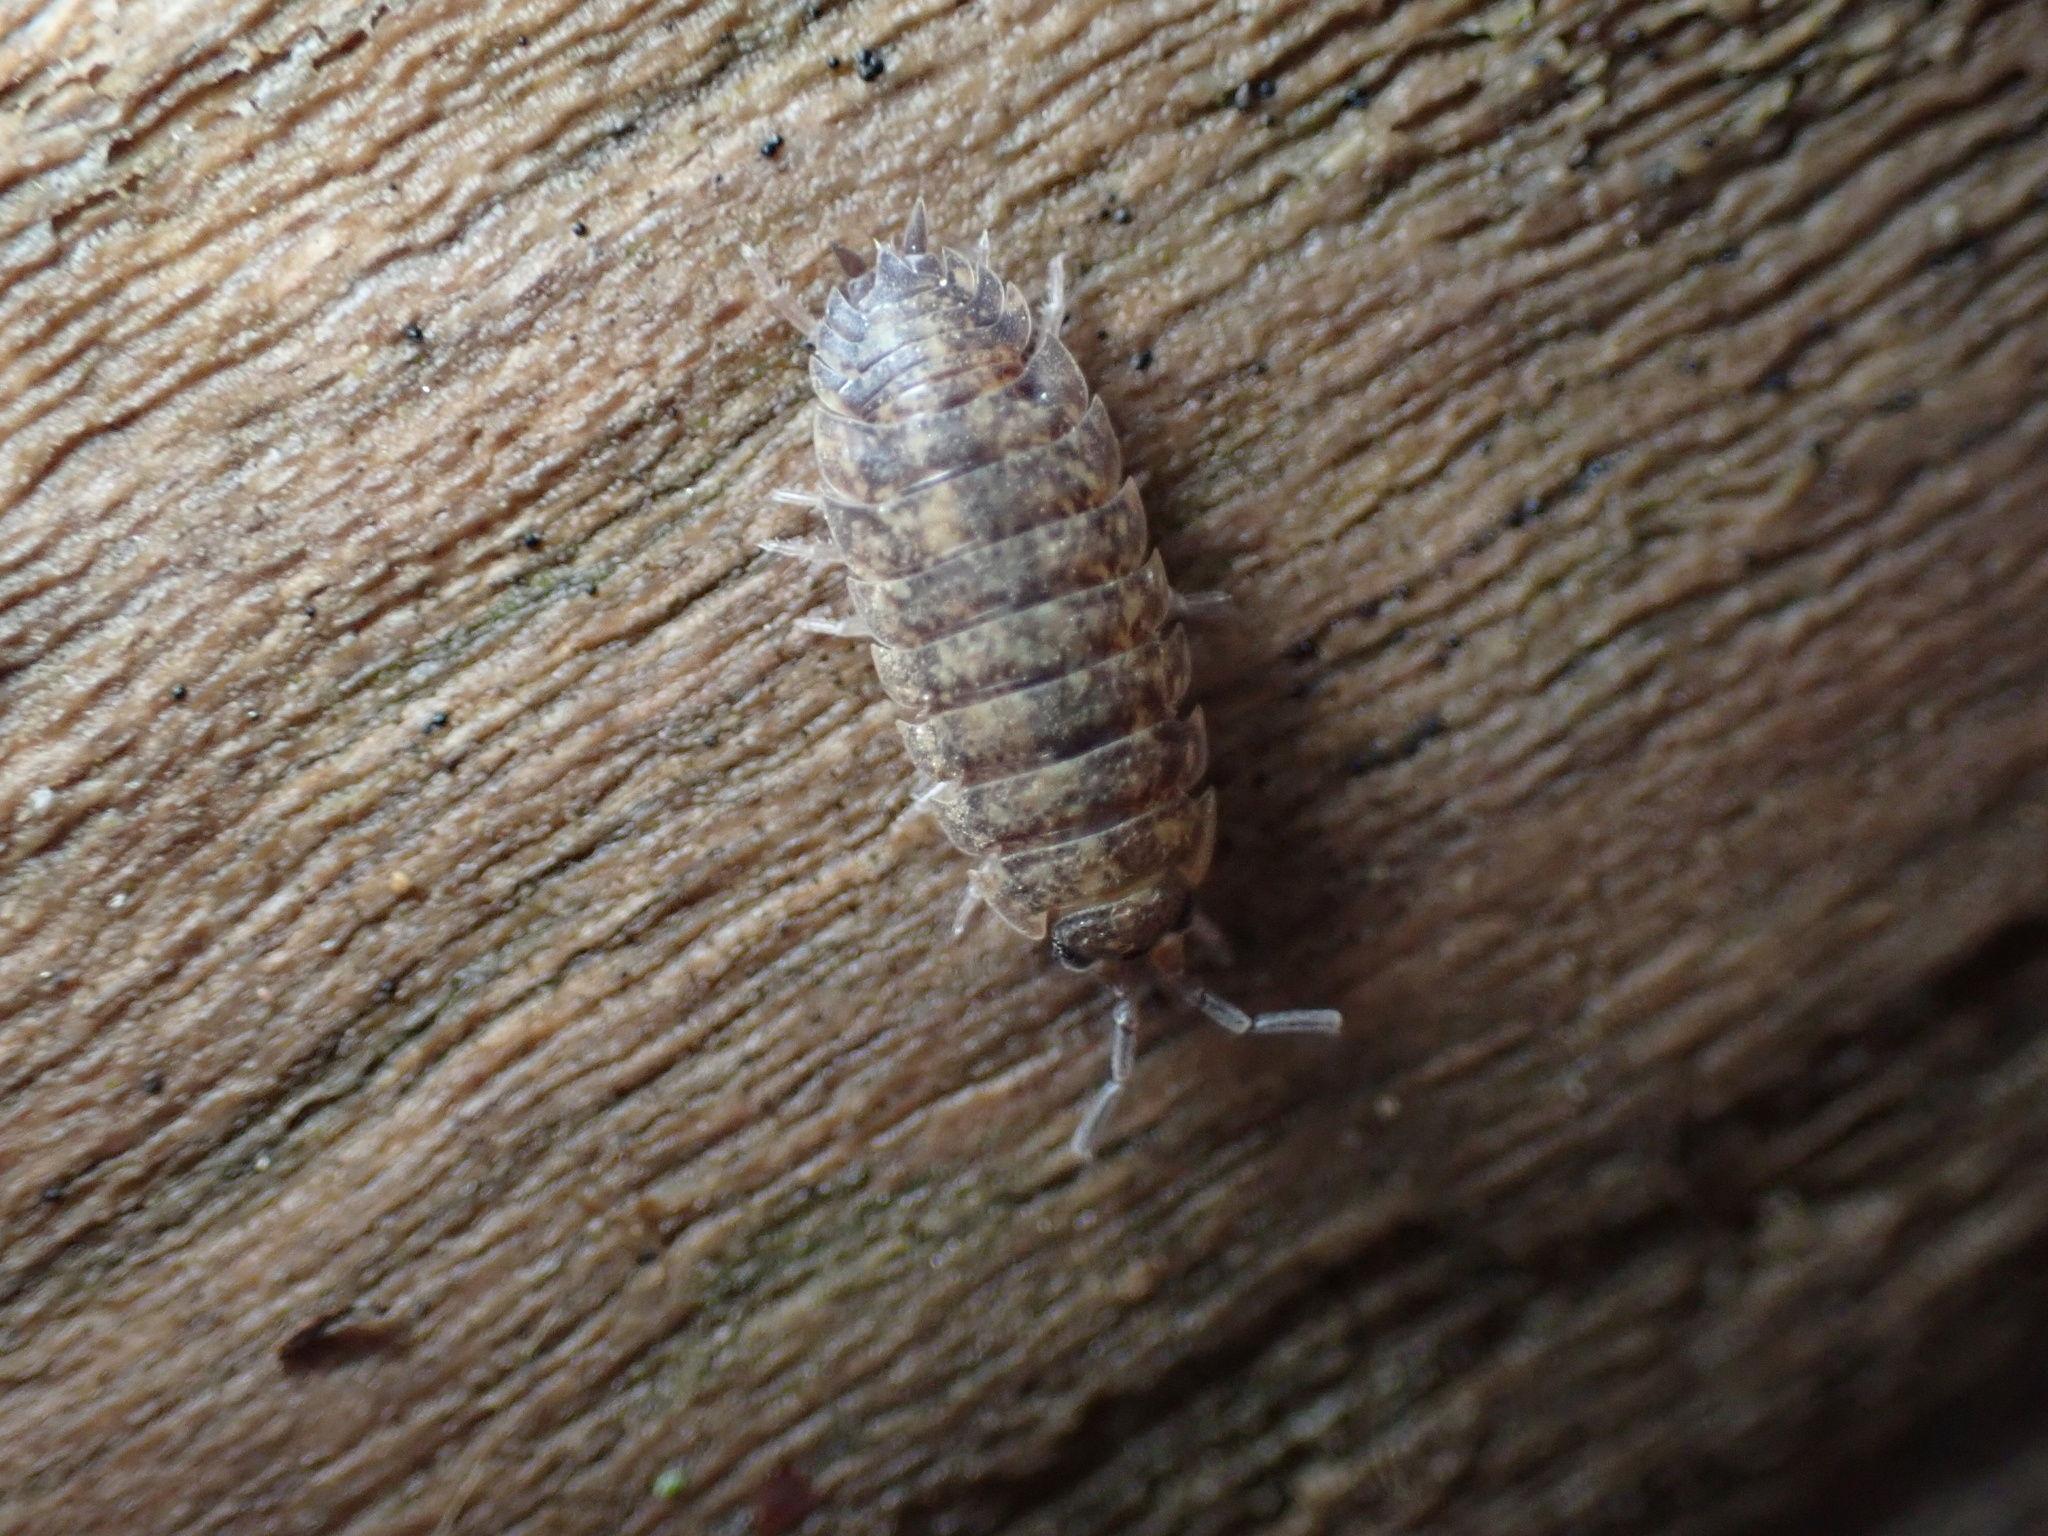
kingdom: Animalia
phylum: Arthropoda
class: Malacostraca
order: Isopoda
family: Porcellionidae
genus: Porcellio
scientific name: Porcellio scaber
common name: Common rough woodlouse
